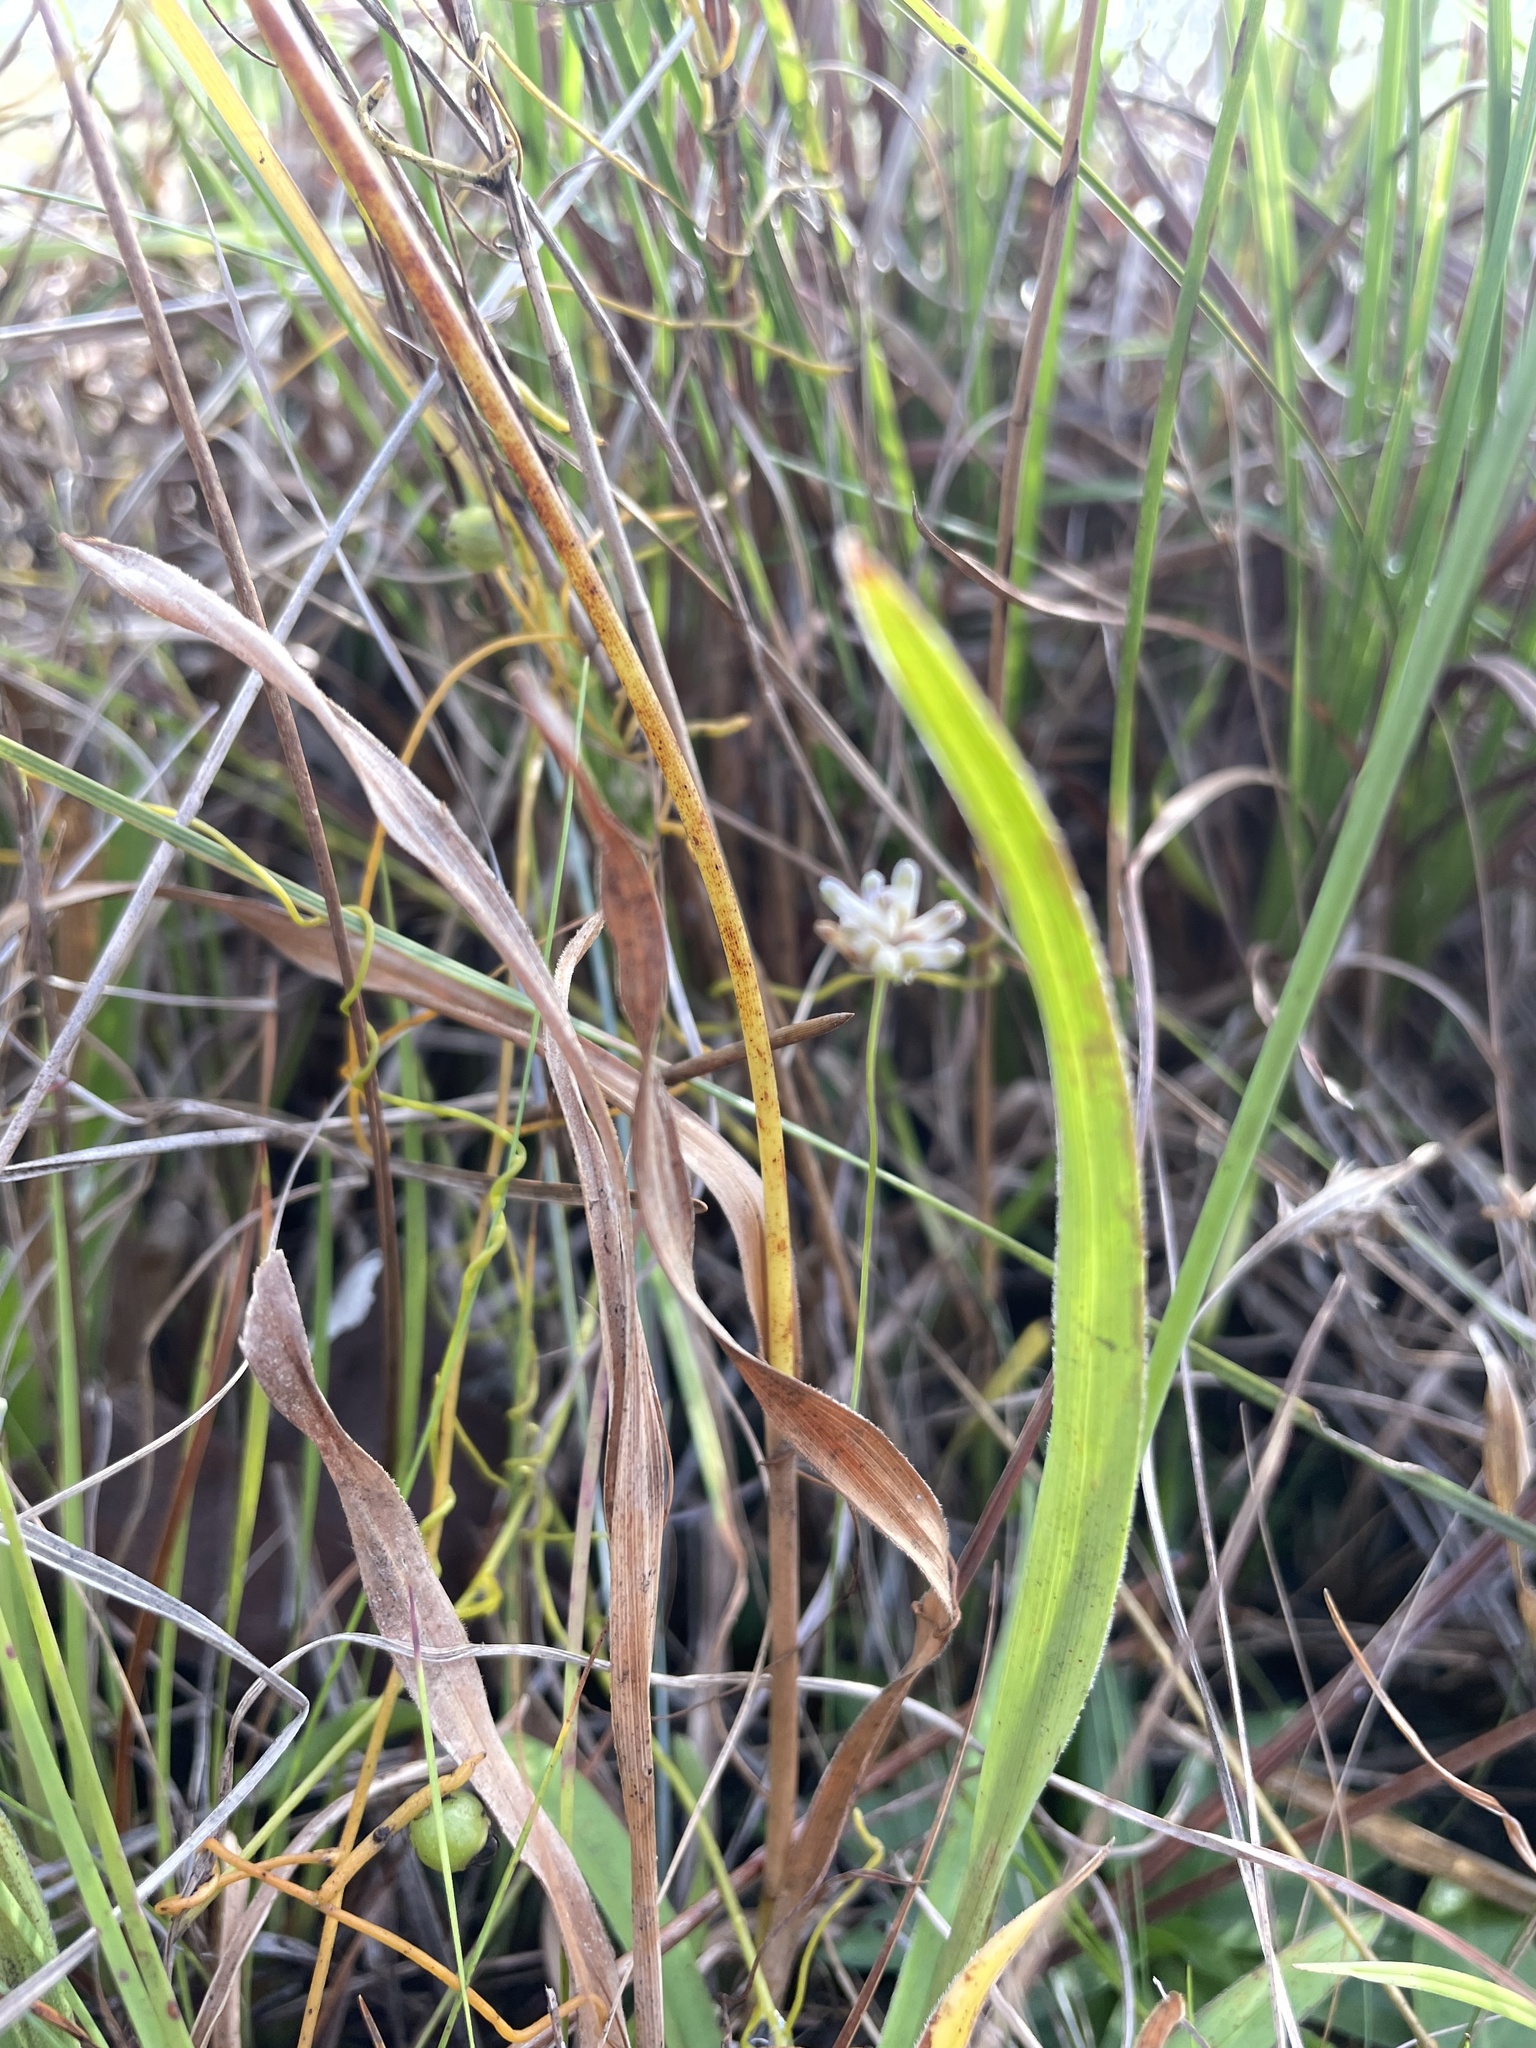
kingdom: Plantae
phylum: Tracheophyta
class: Liliopsida
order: Dioscoreales
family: Burmanniaceae
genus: Burmannia
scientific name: Burmannia capitata
